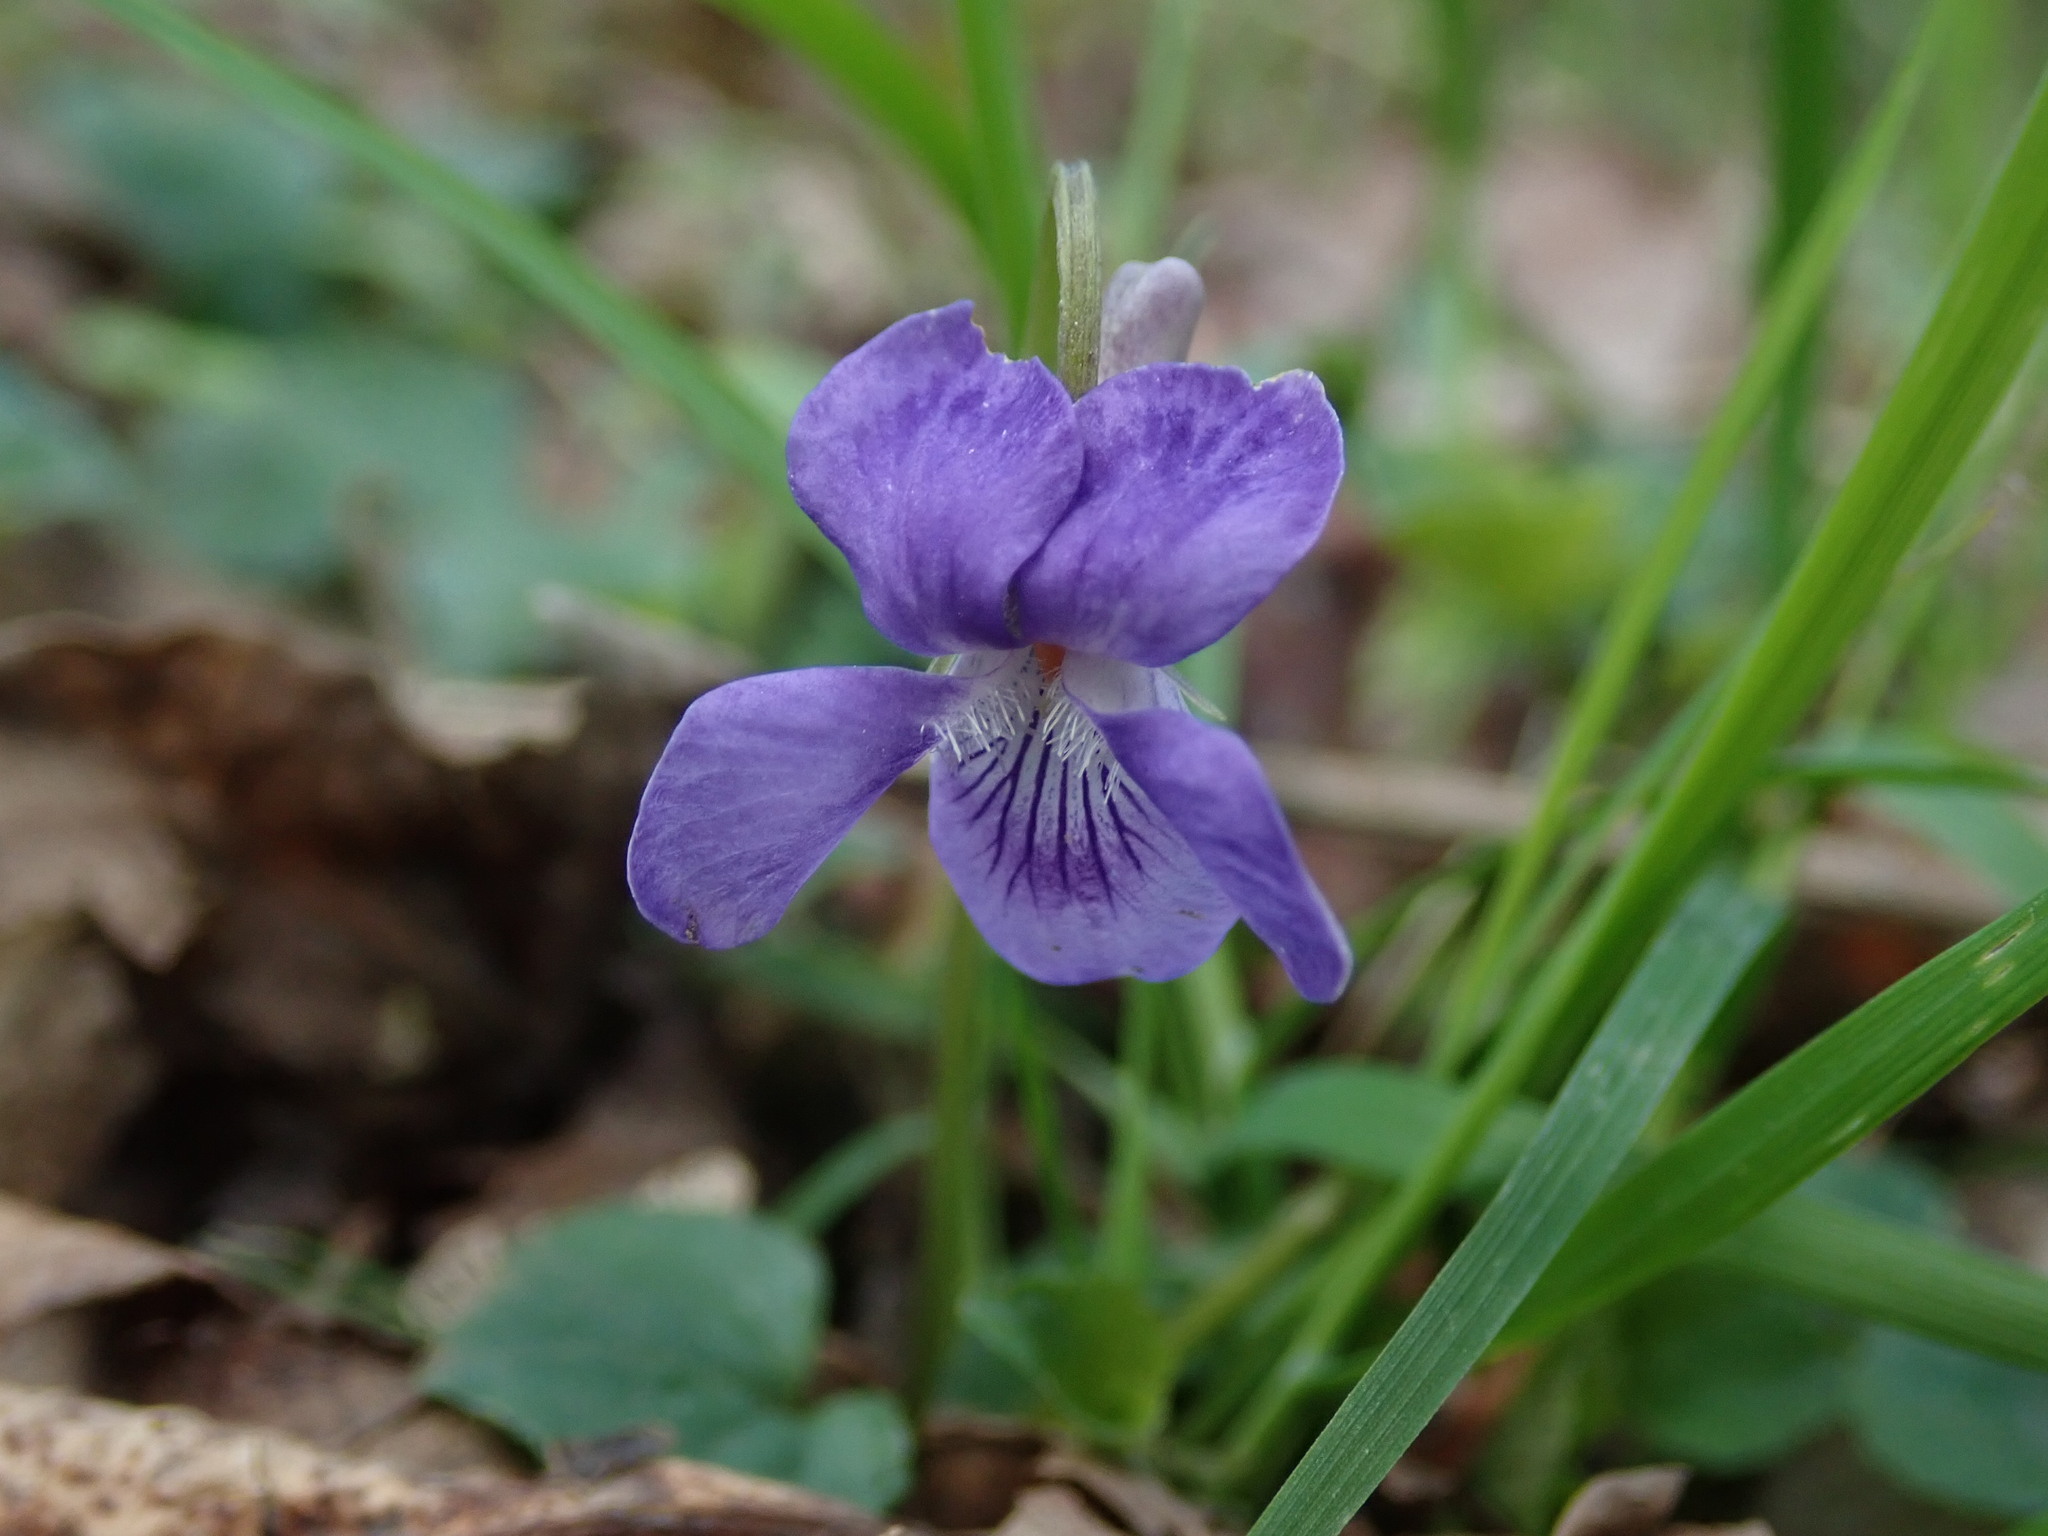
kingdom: Plantae
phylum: Tracheophyta
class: Magnoliopsida
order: Malpighiales
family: Violaceae
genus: Viola
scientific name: Viola riviniana
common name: Common dog-violet
